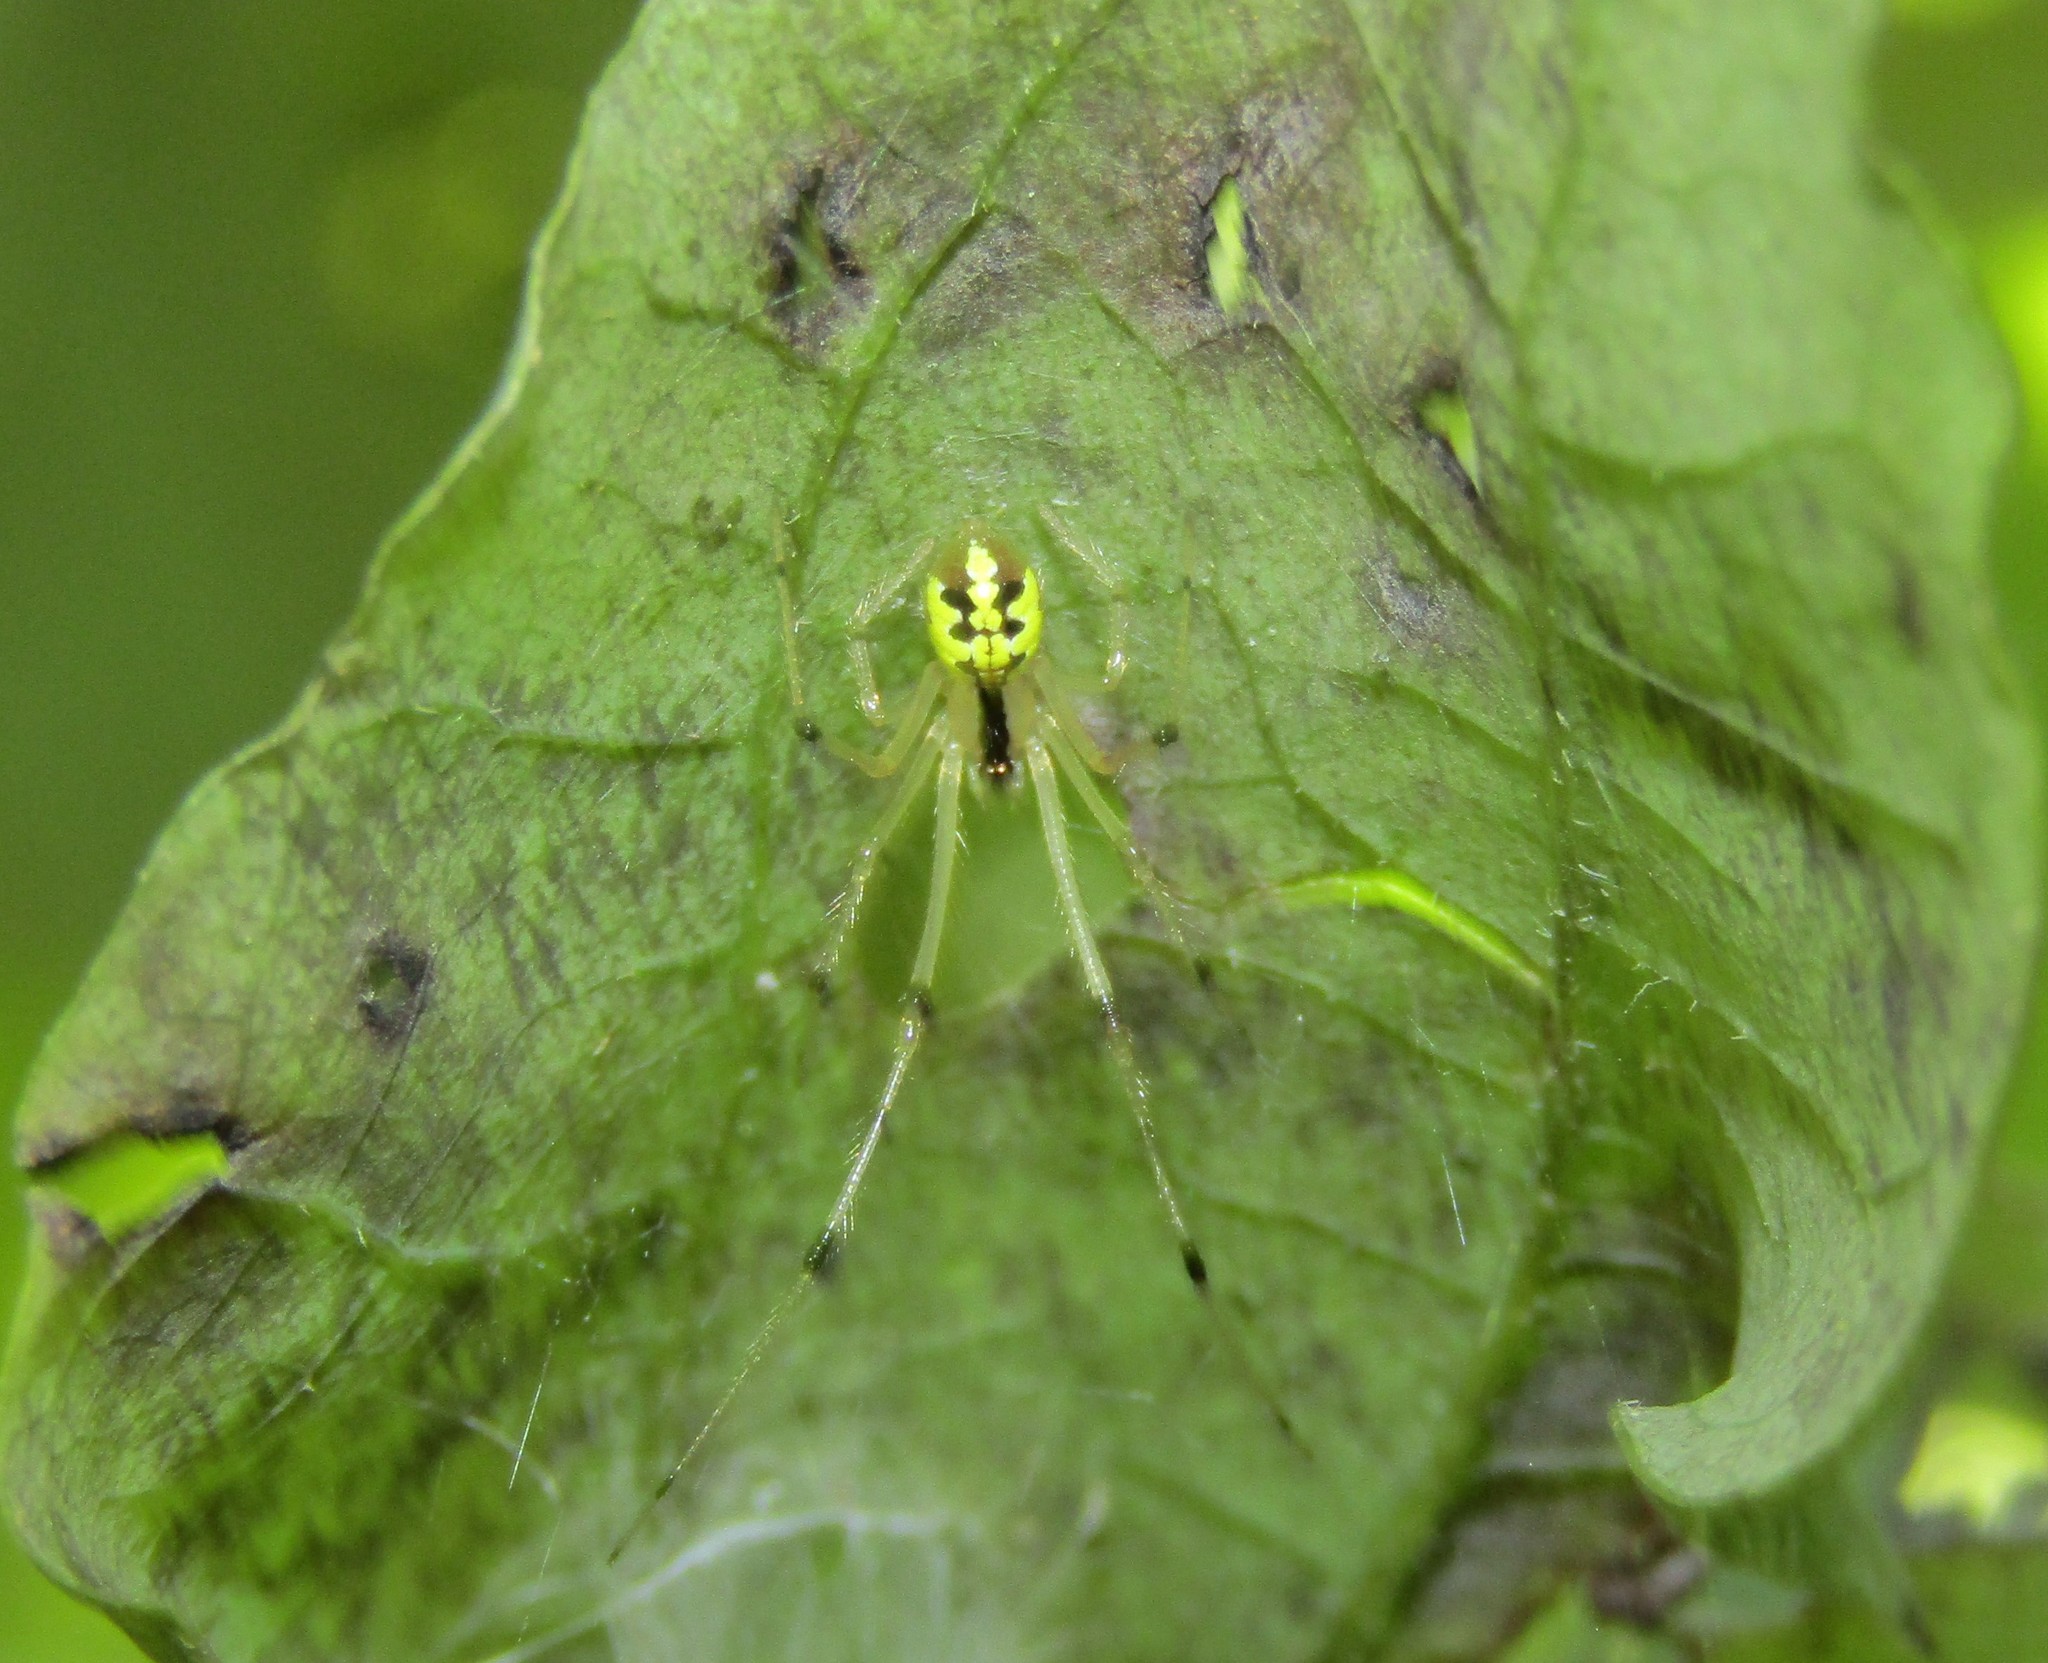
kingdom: Animalia
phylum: Arthropoda
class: Arachnida
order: Araneae
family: Theridiidae
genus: Phylloneta
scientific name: Phylloneta pictipes
